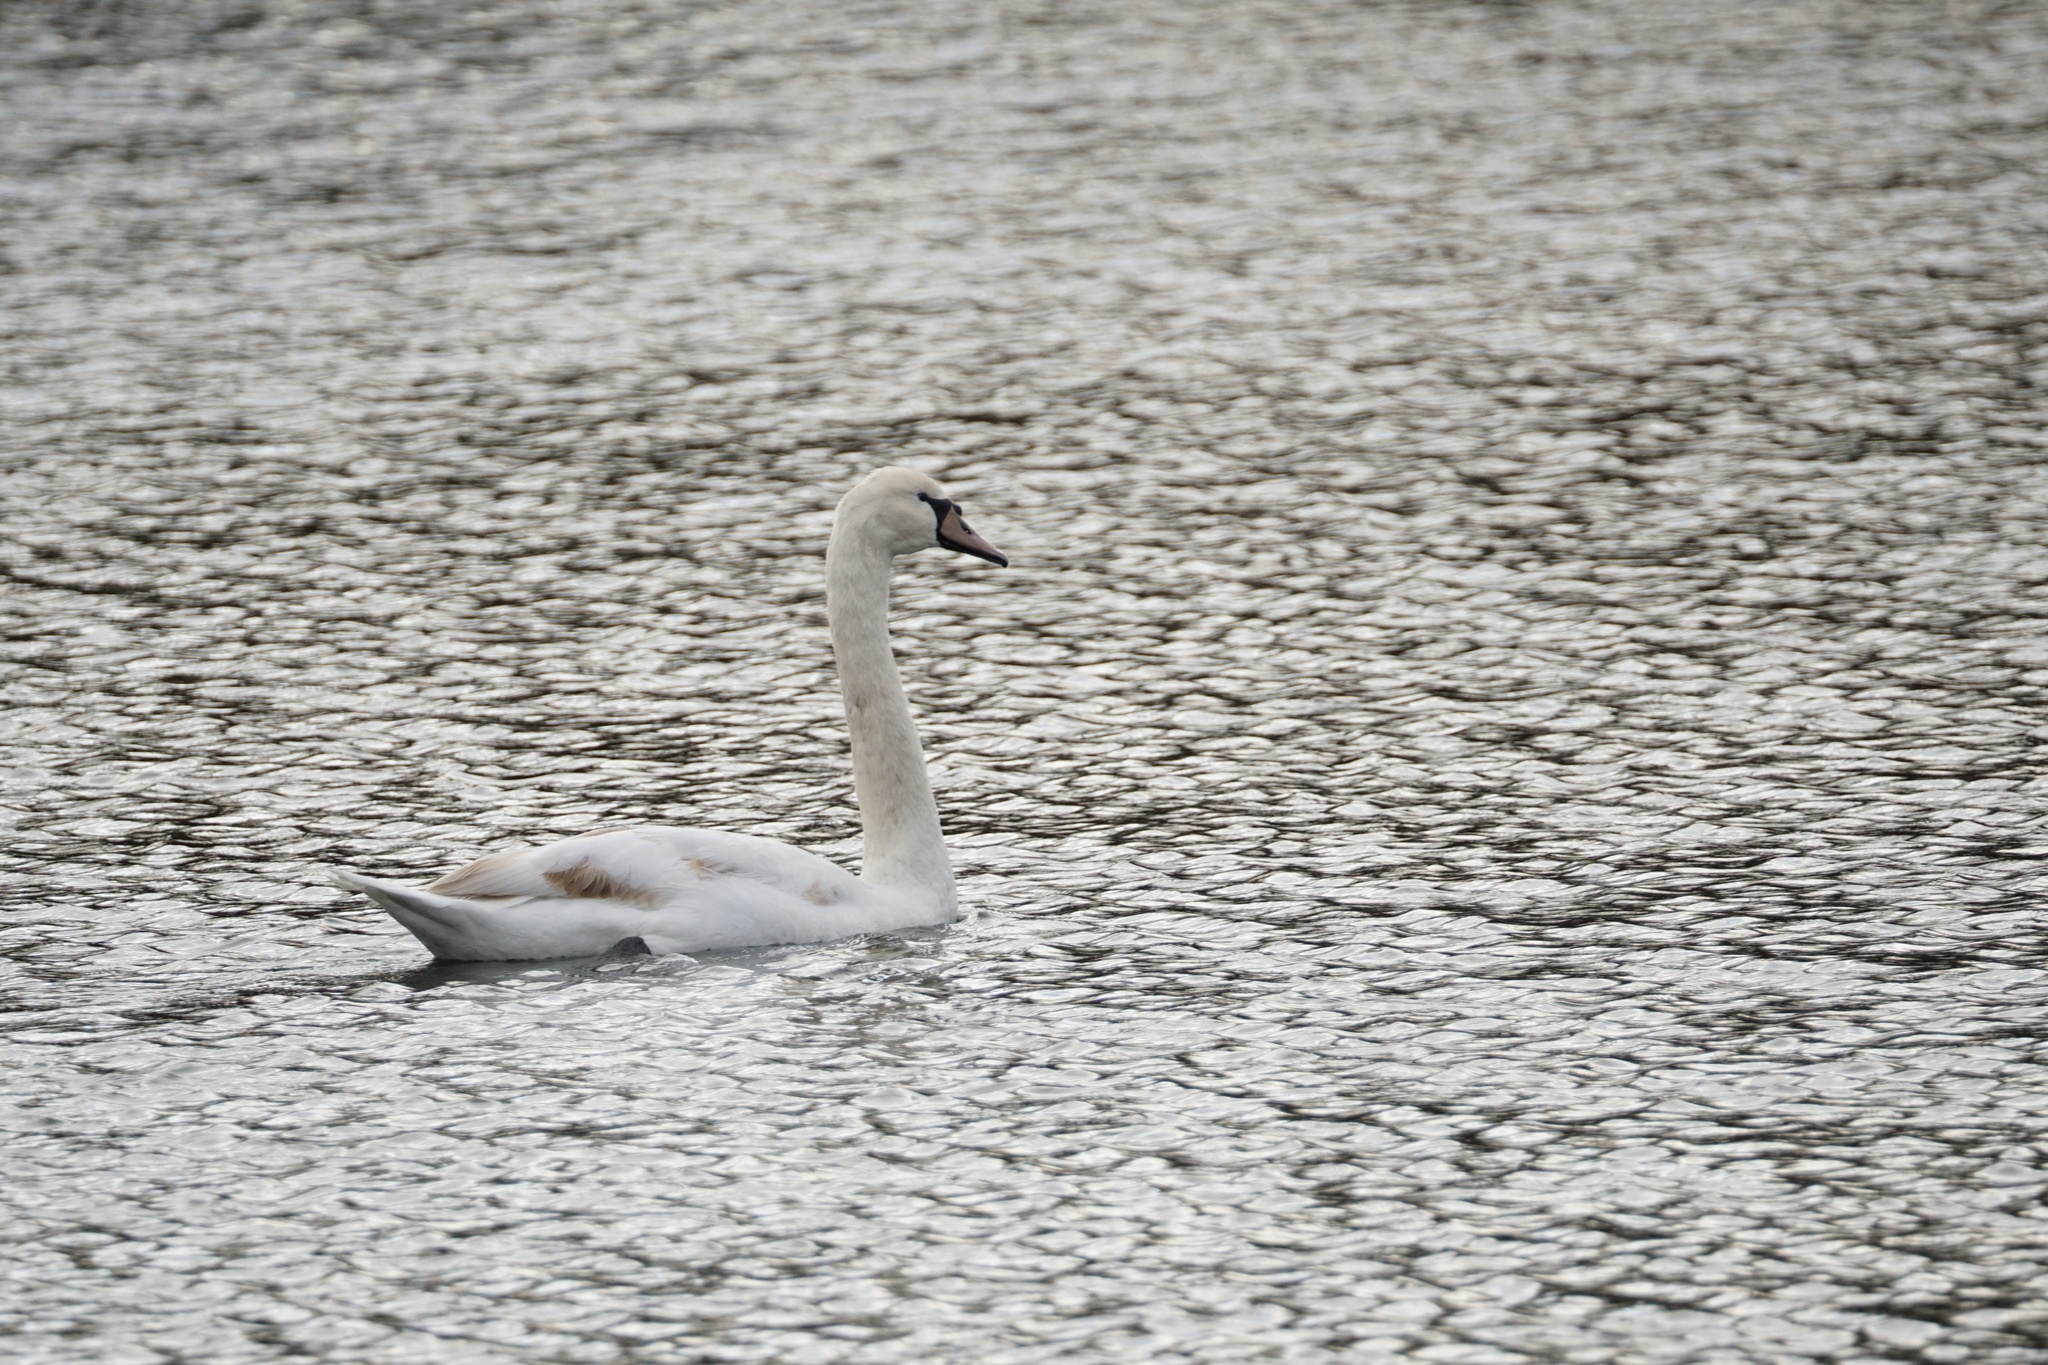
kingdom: Animalia
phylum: Chordata
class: Aves
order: Anseriformes
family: Anatidae
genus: Cygnus
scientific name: Cygnus olor
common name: Mute swan
